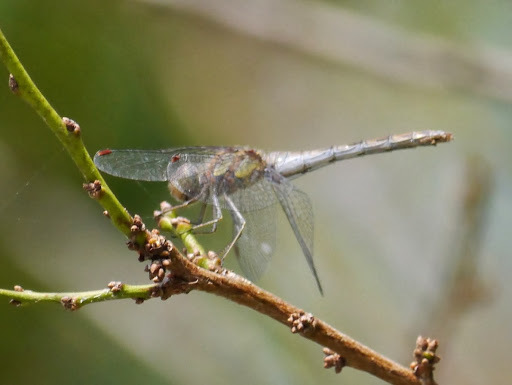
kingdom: Animalia
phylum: Arthropoda
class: Insecta
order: Odonata
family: Libellulidae
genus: Sympetrum
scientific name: Sympetrum striolatum
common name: Common darter
